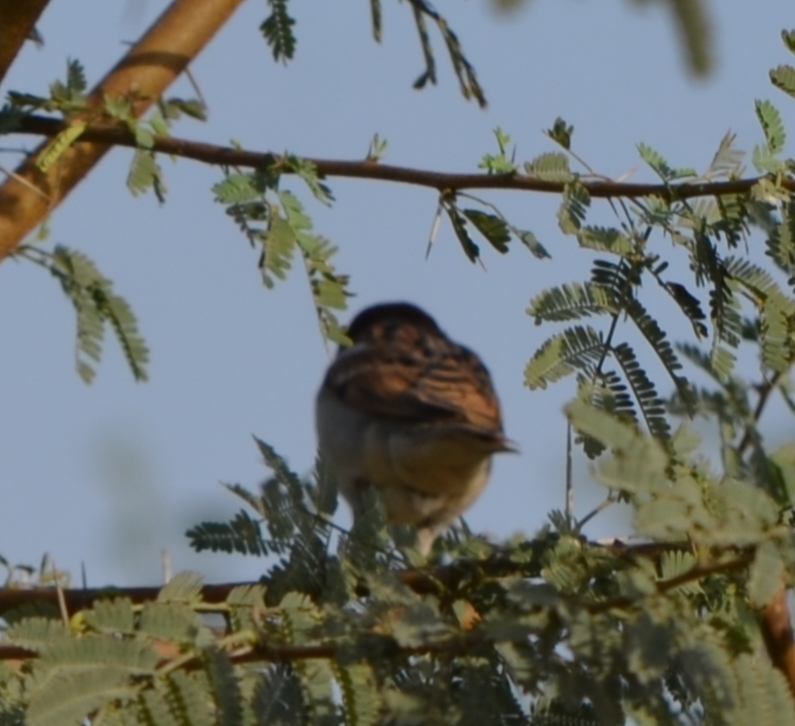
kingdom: Animalia
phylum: Chordata
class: Aves
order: Passeriformes
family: Passeridae
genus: Passer
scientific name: Passer domesticus
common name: House sparrow
